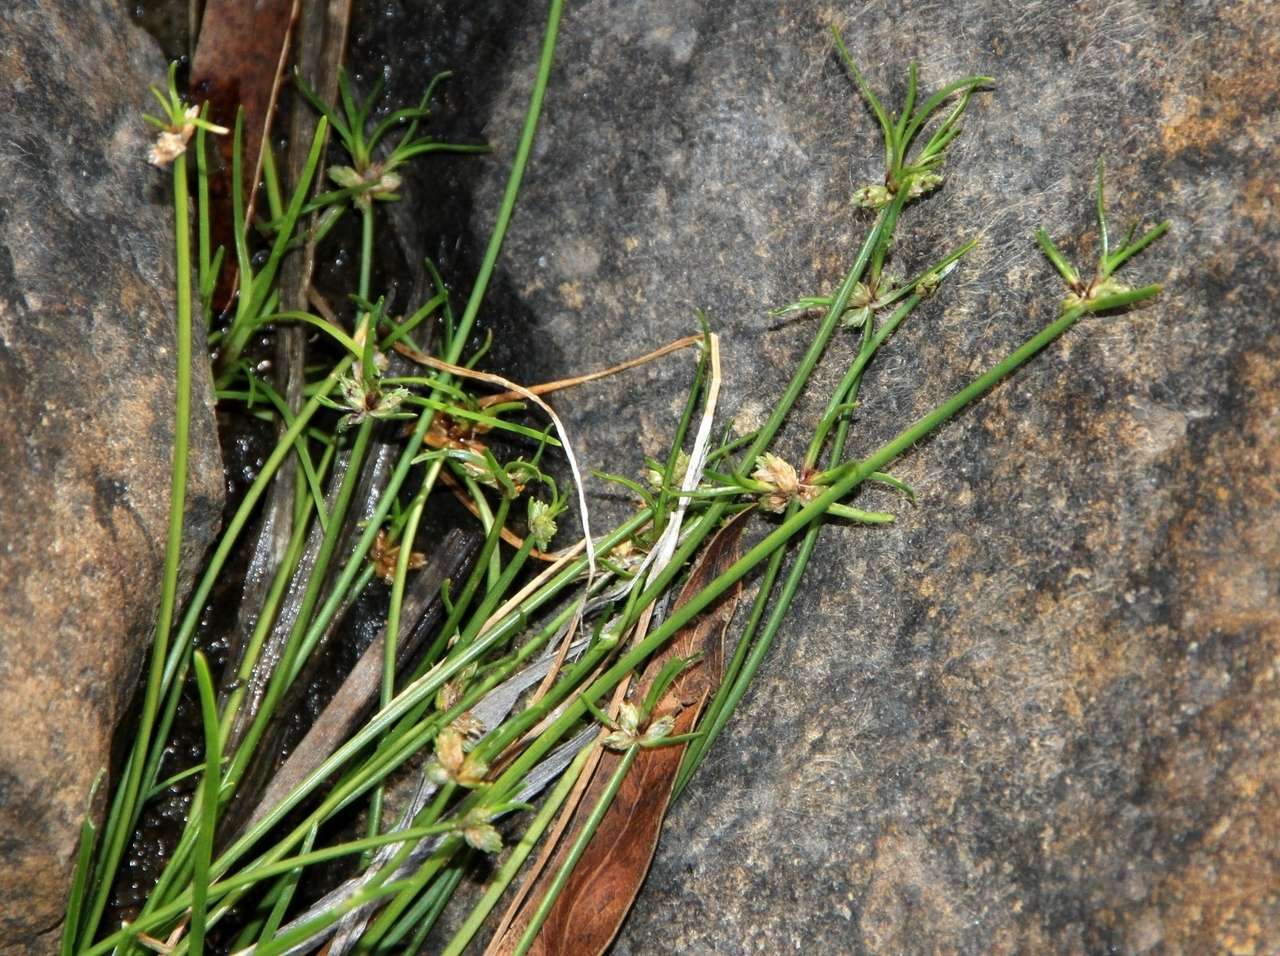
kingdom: Plantae
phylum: Tracheophyta
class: Liliopsida
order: Poales
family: Cyperaceae
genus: Isolepis
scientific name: Isolepis inundata
